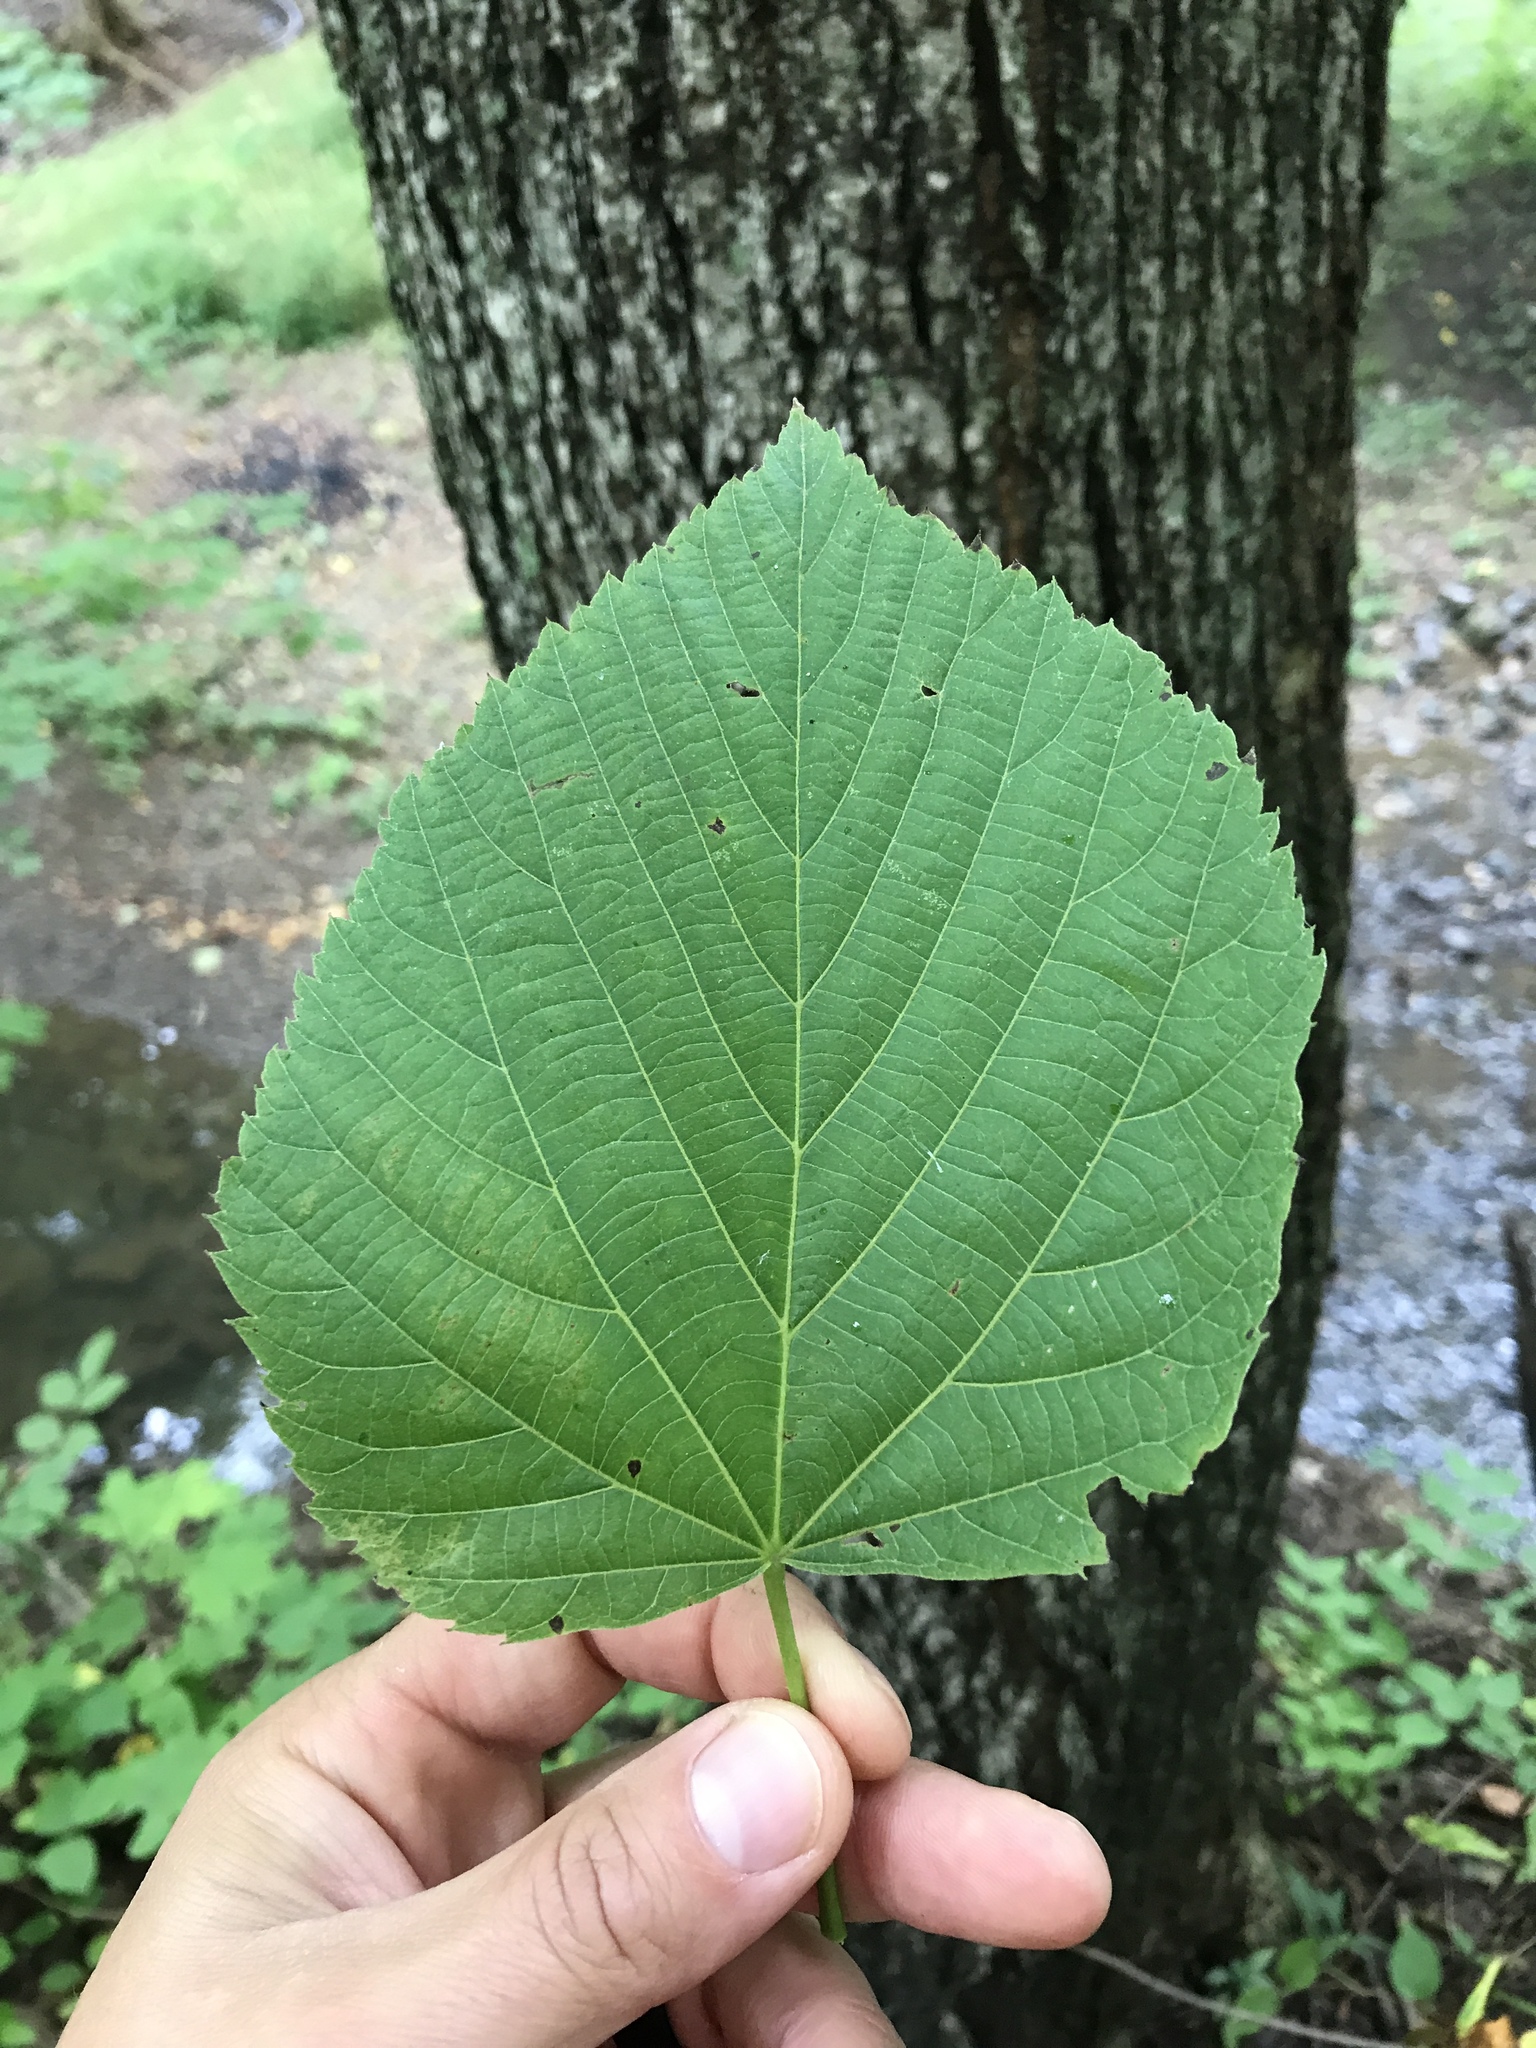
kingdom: Plantae
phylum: Tracheophyta
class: Magnoliopsida
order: Malvales
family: Malvaceae
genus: Tilia
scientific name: Tilia americana
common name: Basswood
